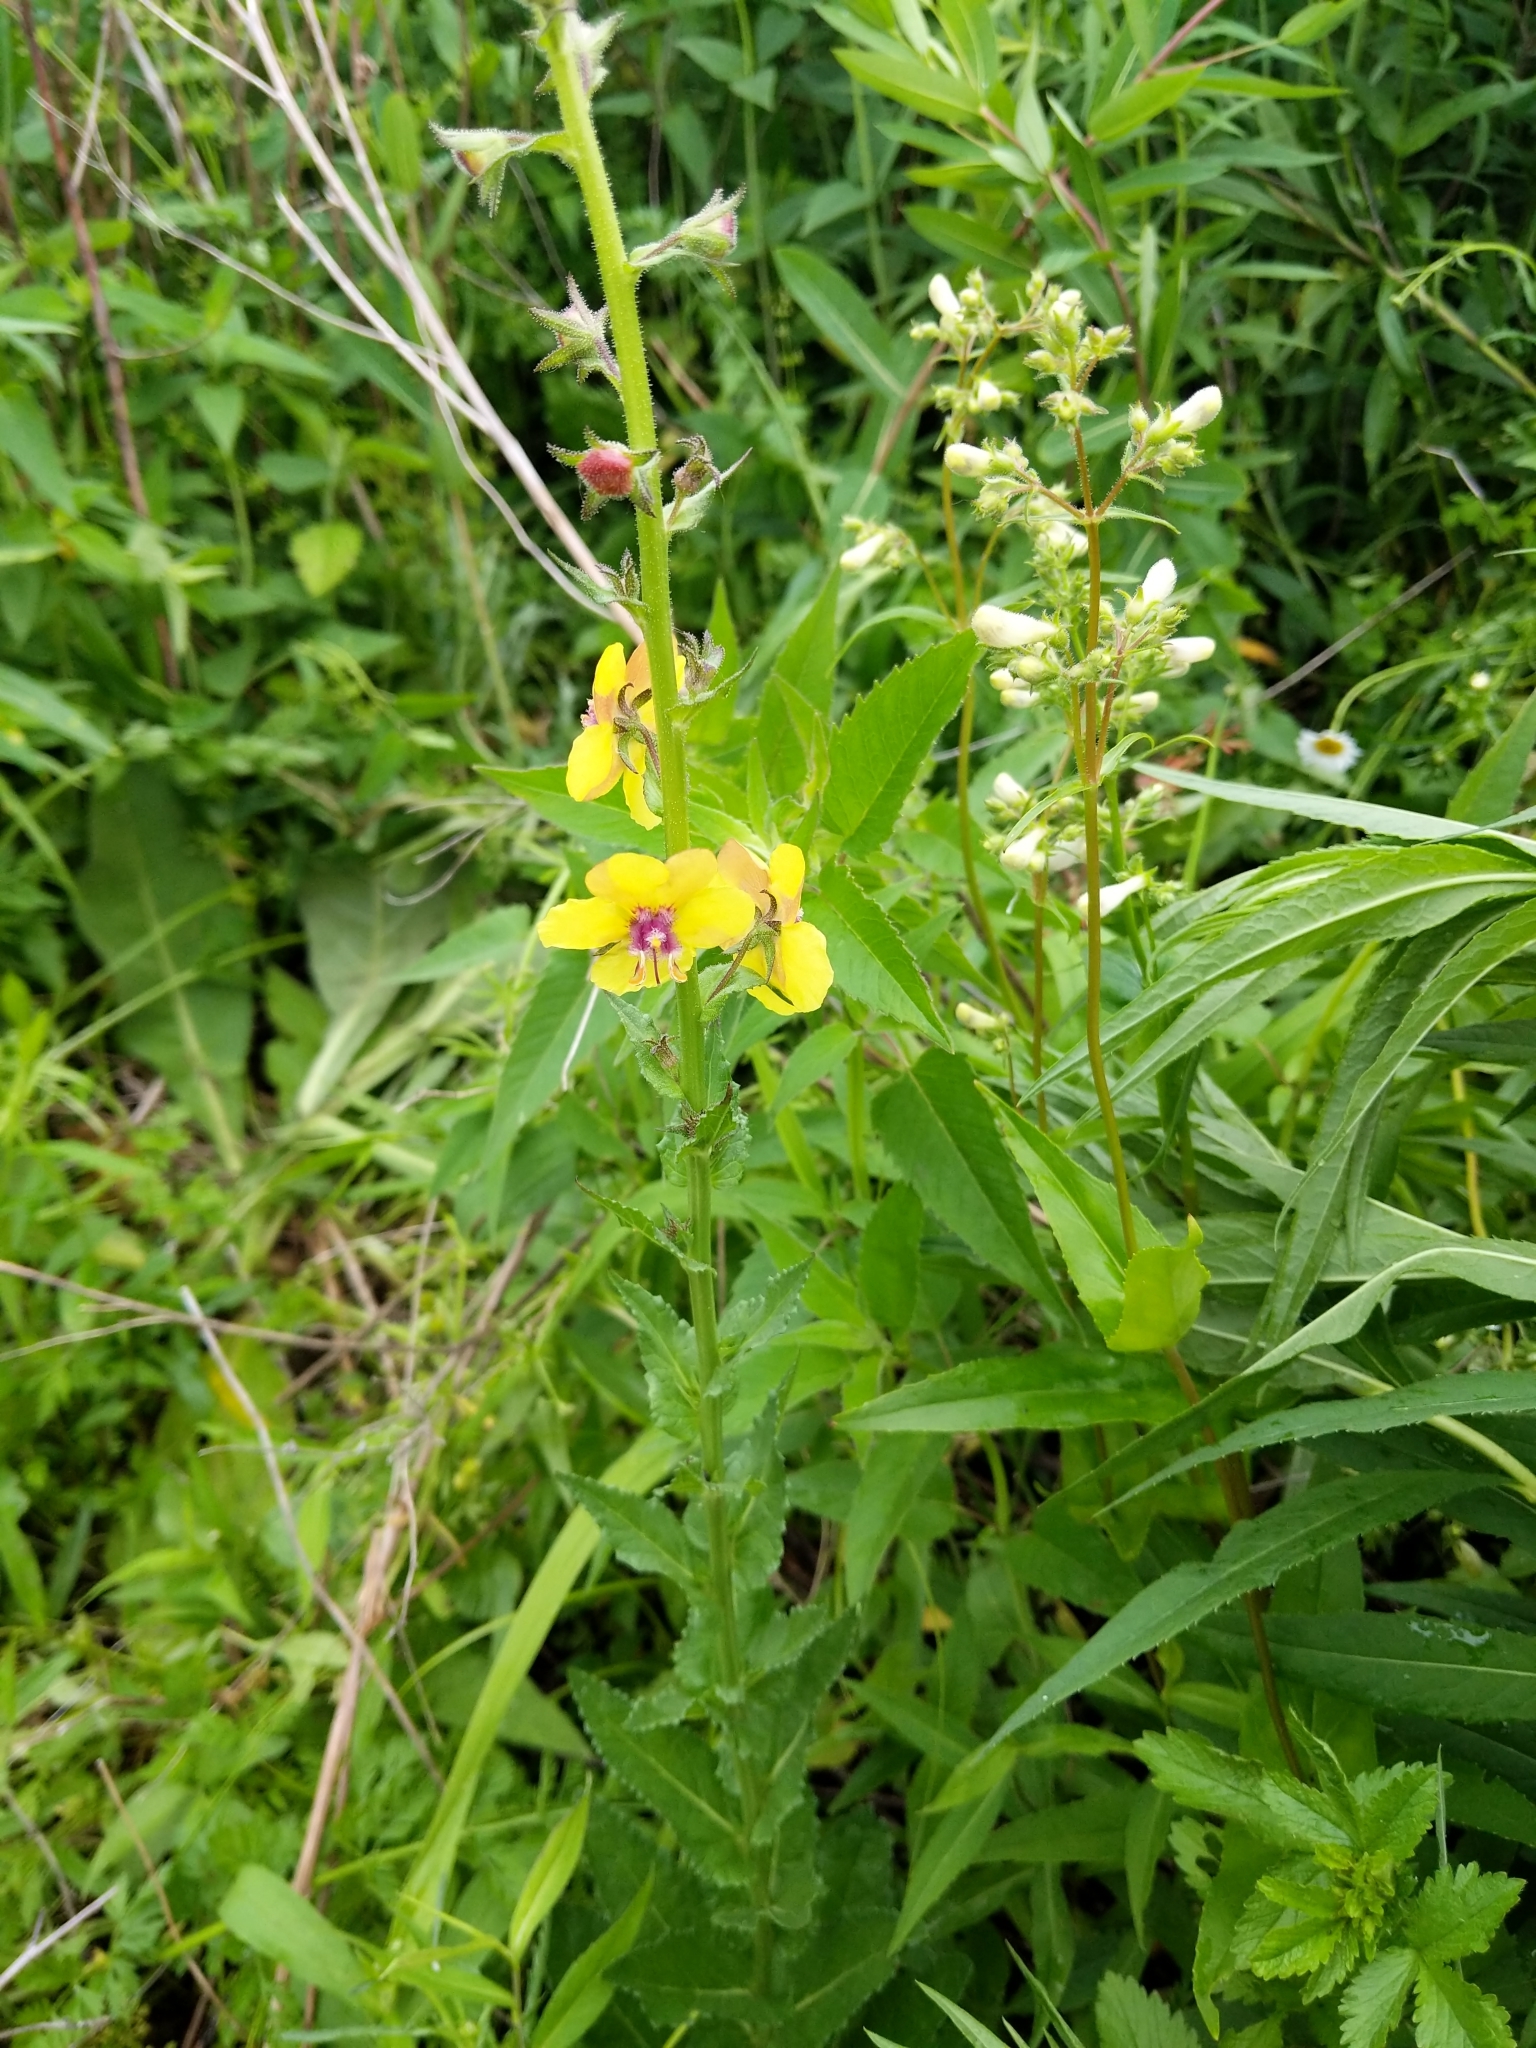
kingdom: Plantae
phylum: Tracheophyta
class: Magnoliopsida
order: Lamiales
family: Scrophulariaceae
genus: Verbascum
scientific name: Verbascum blattaria
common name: Moth mullein
